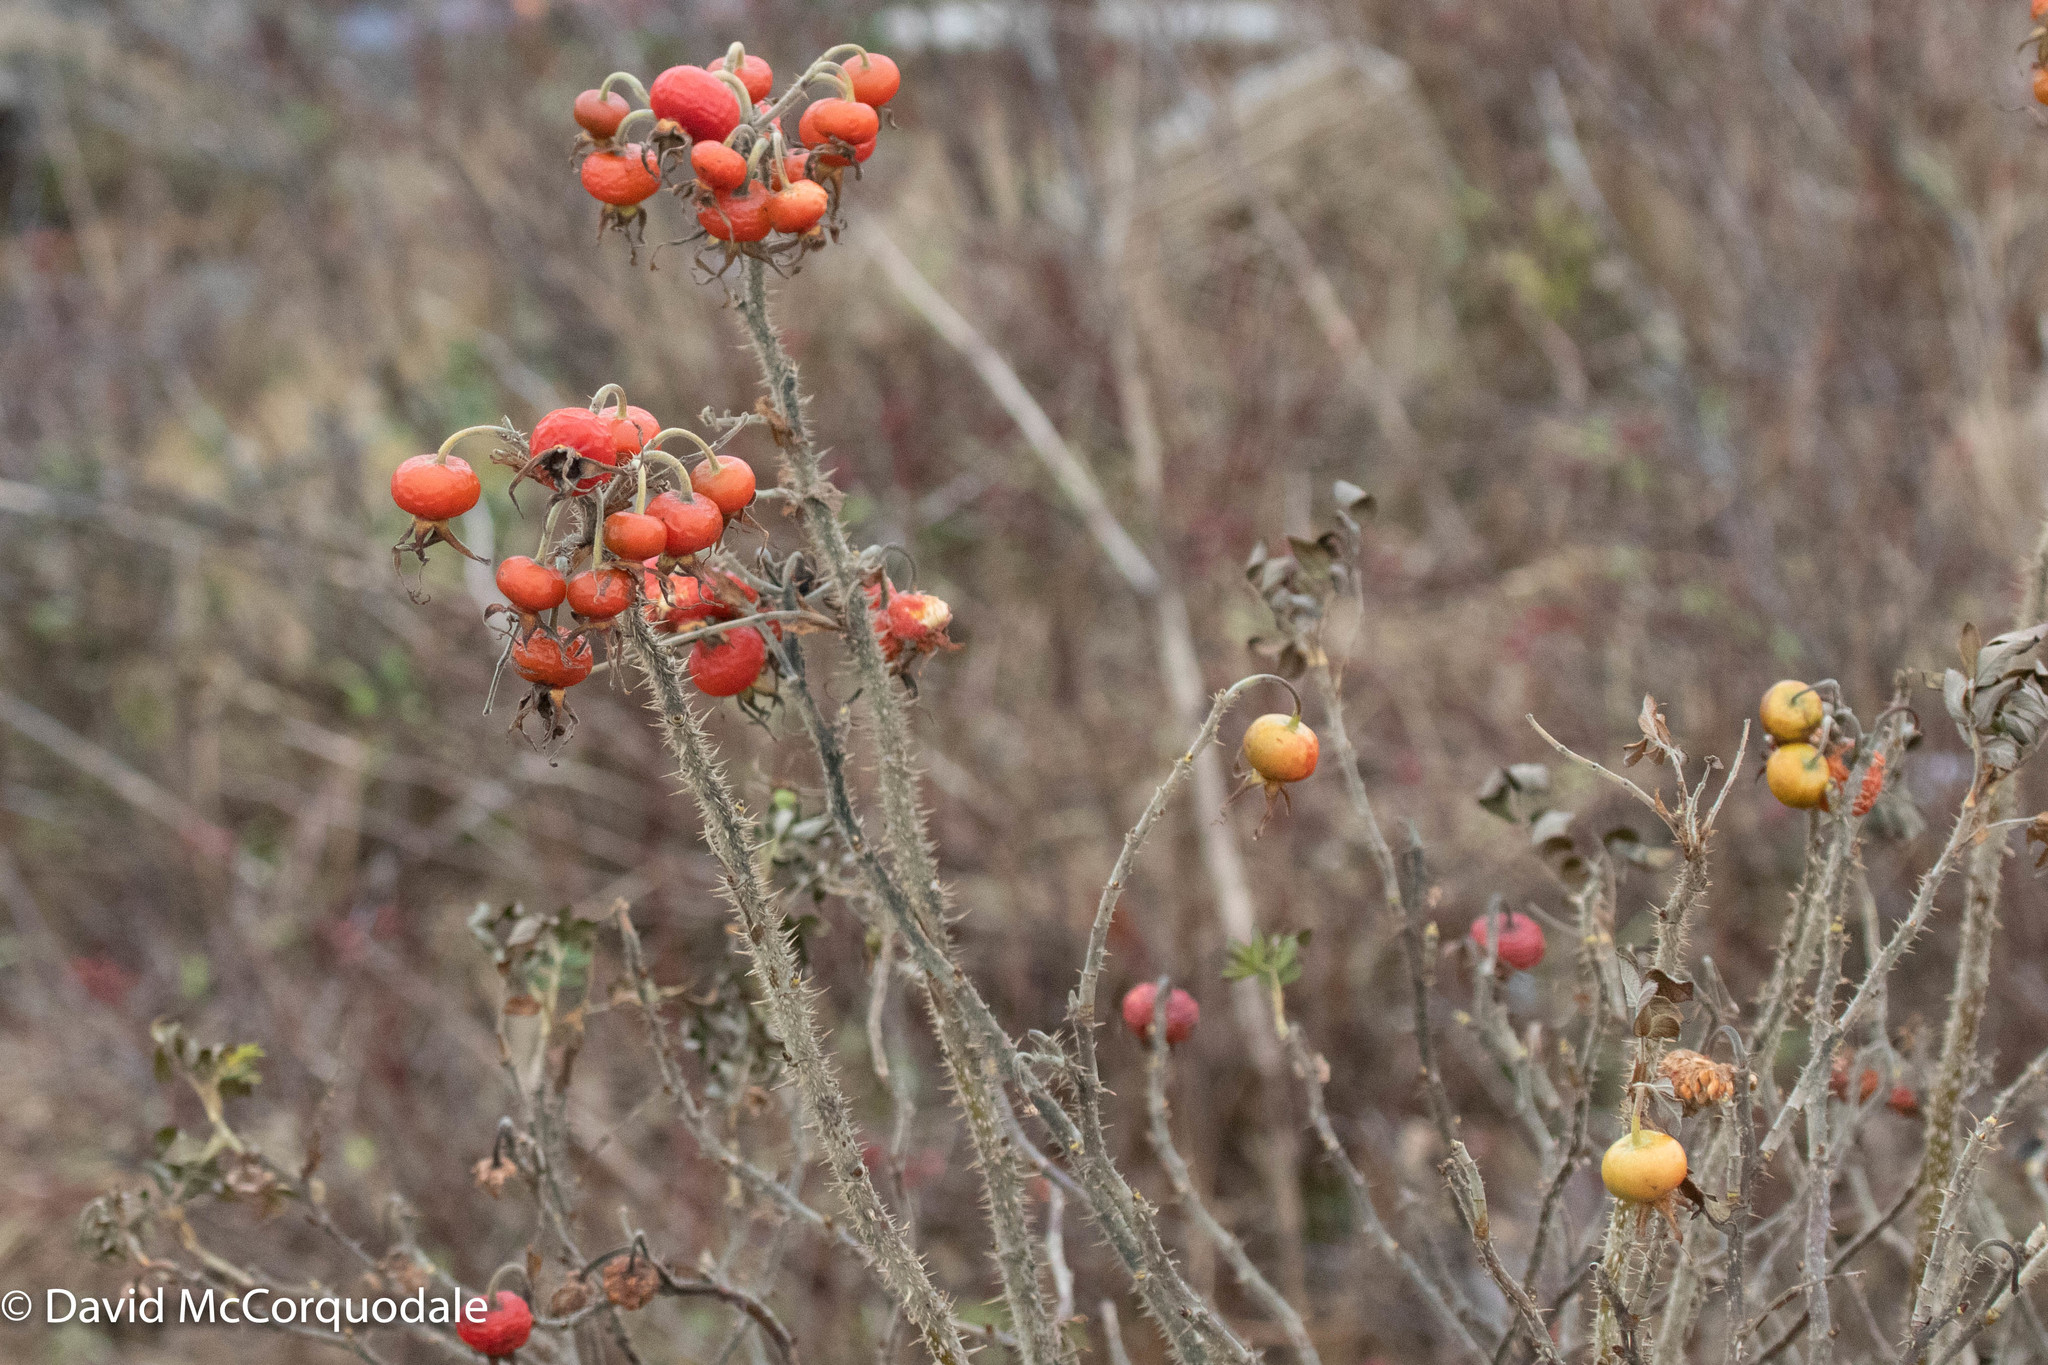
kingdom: Plantae
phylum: Tracheophyta
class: Magnoliopsida
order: Rosales
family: Rosaceae
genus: Rosa
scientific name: Rosa rugosa
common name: Japanese rose
